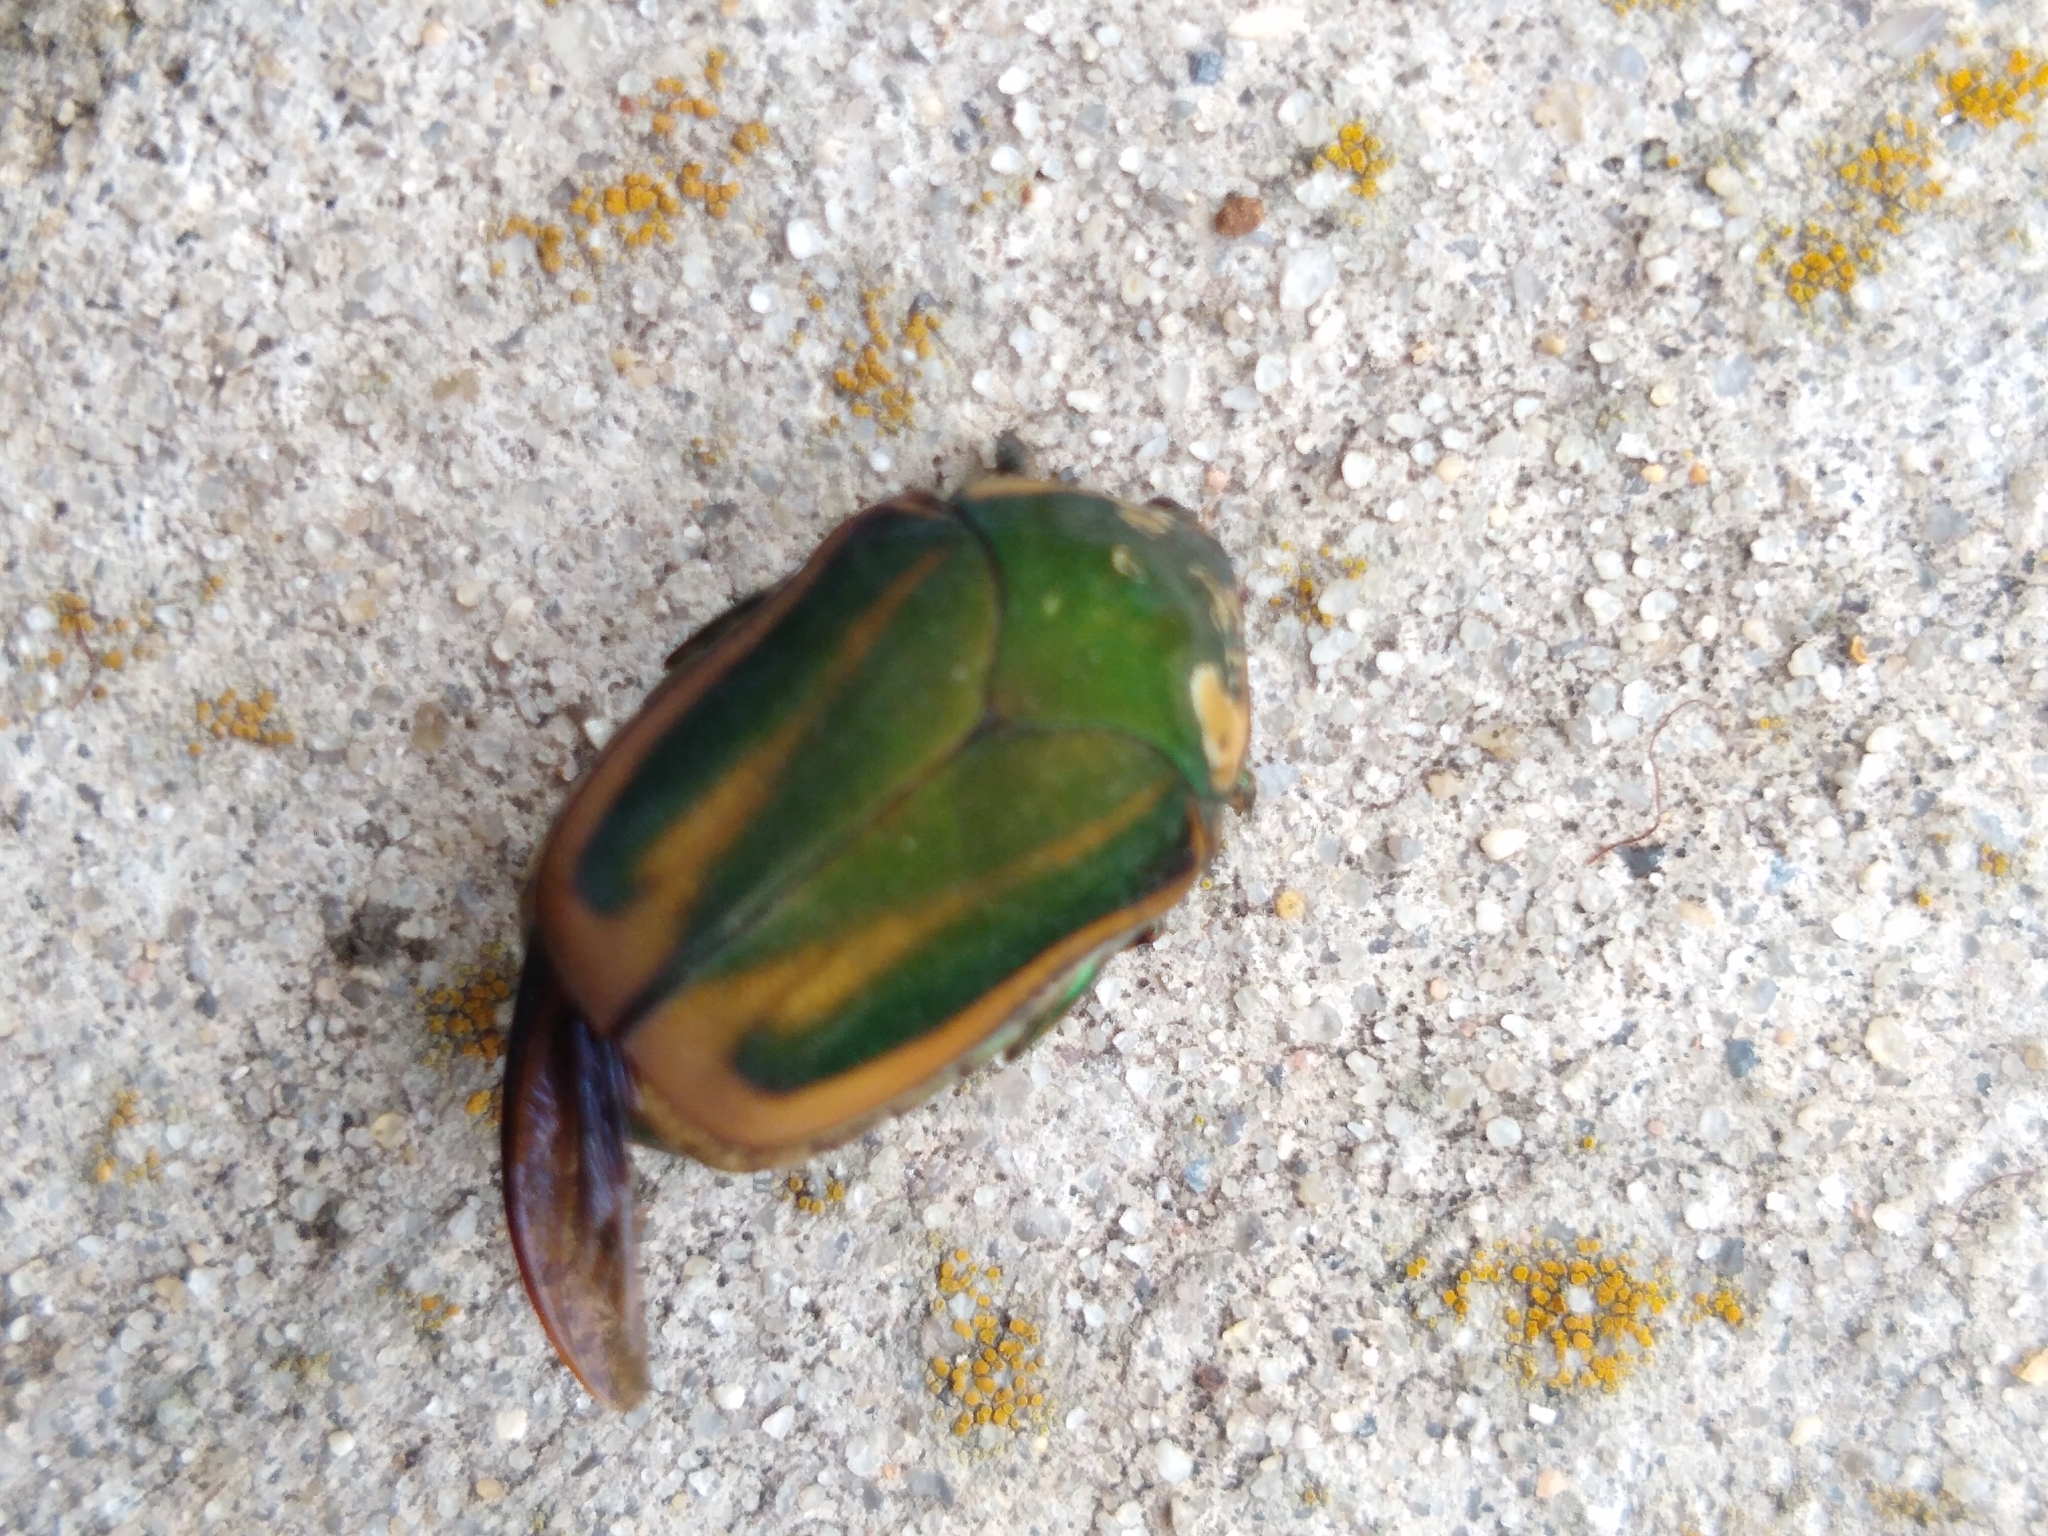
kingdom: Animalia
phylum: Arthropoda
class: Insecta
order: Coleoptera
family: Scarabaeidae
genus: Cotinis
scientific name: Cotinis nitida
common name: Common green june beetle
